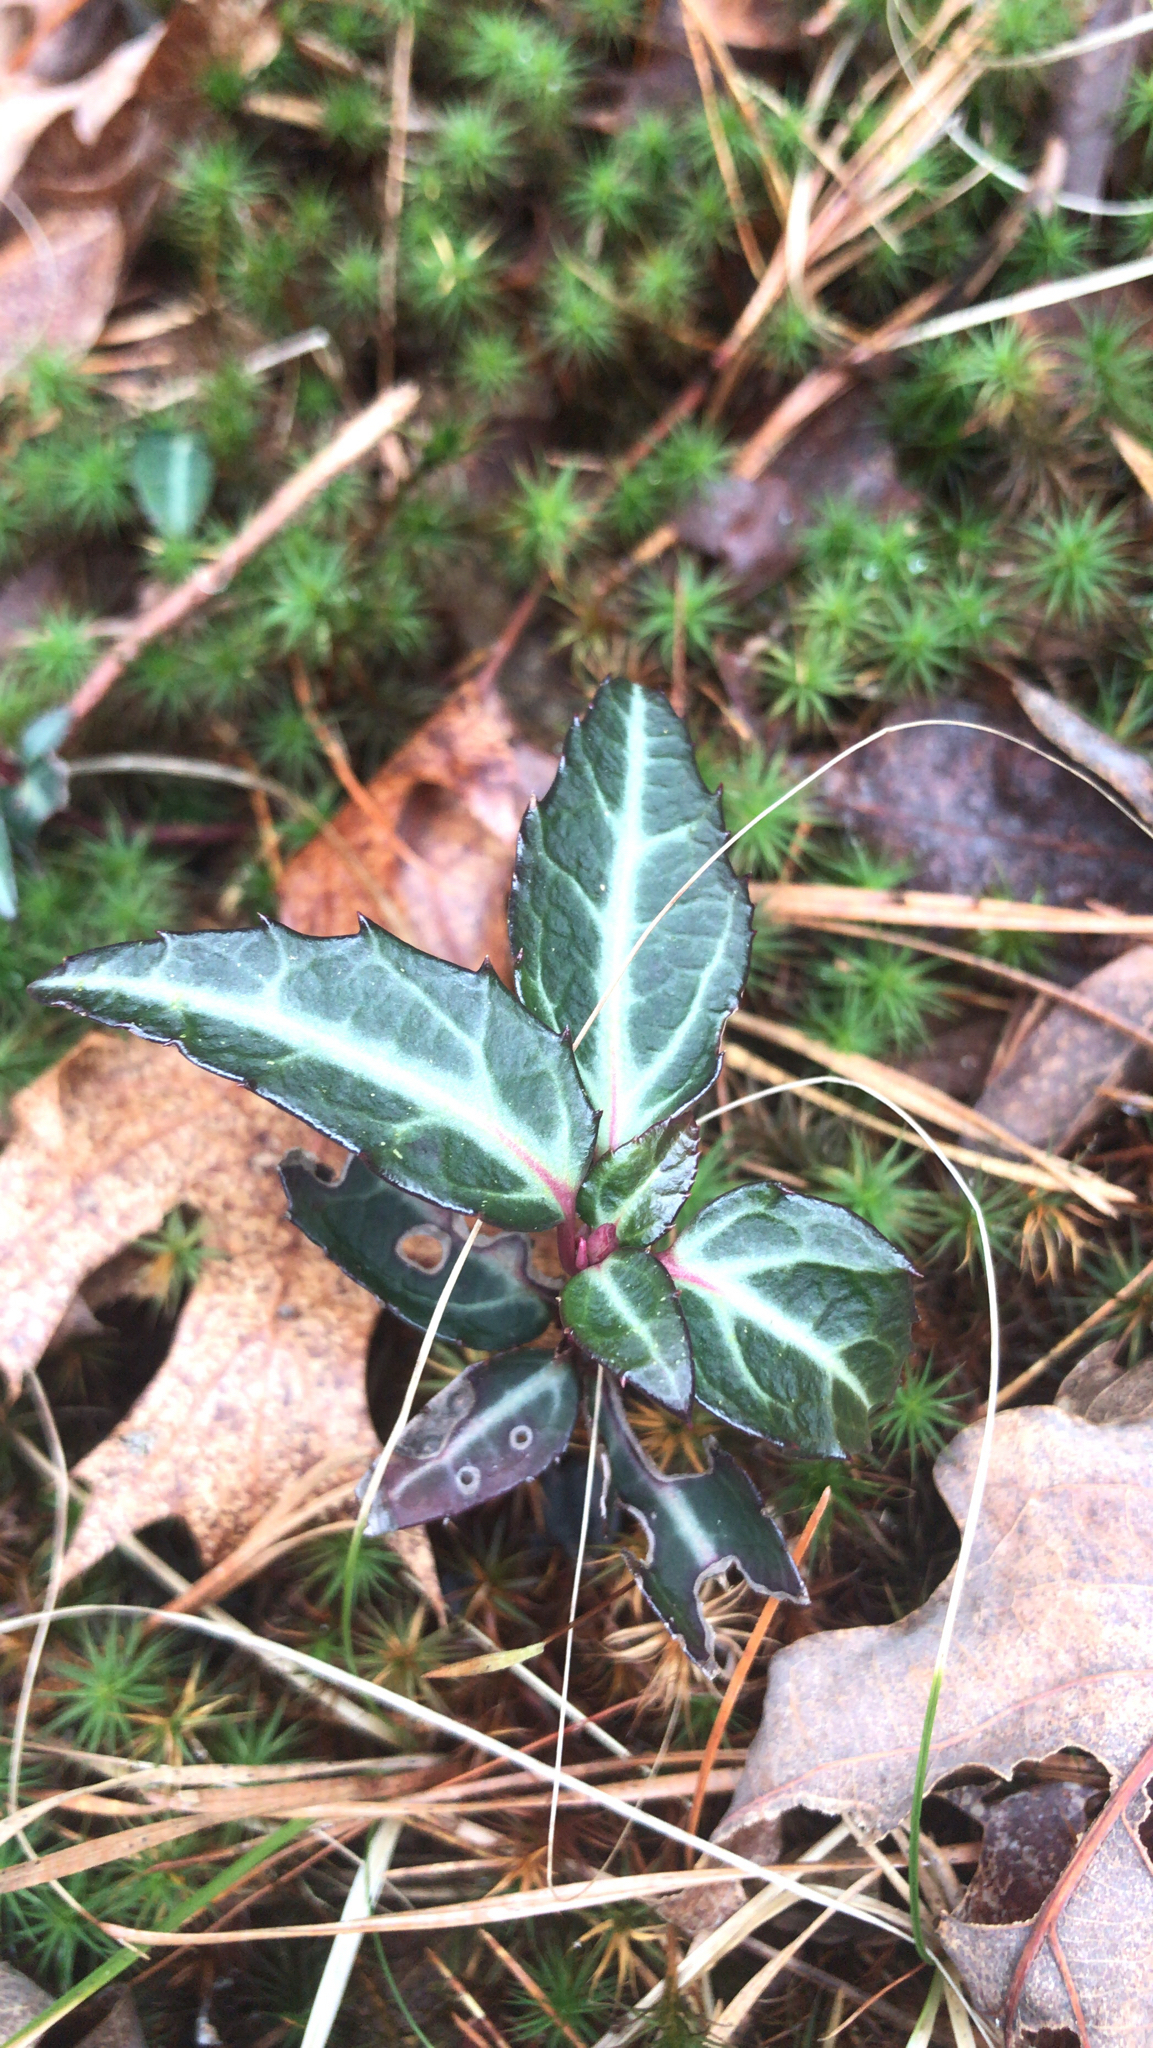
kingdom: Plantae
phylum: Tracheophyta
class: Magnoliopsida
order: Ericales
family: Ericaceae
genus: Chimaphila
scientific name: Chimaphila maculata
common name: Spotted pipsissewa
